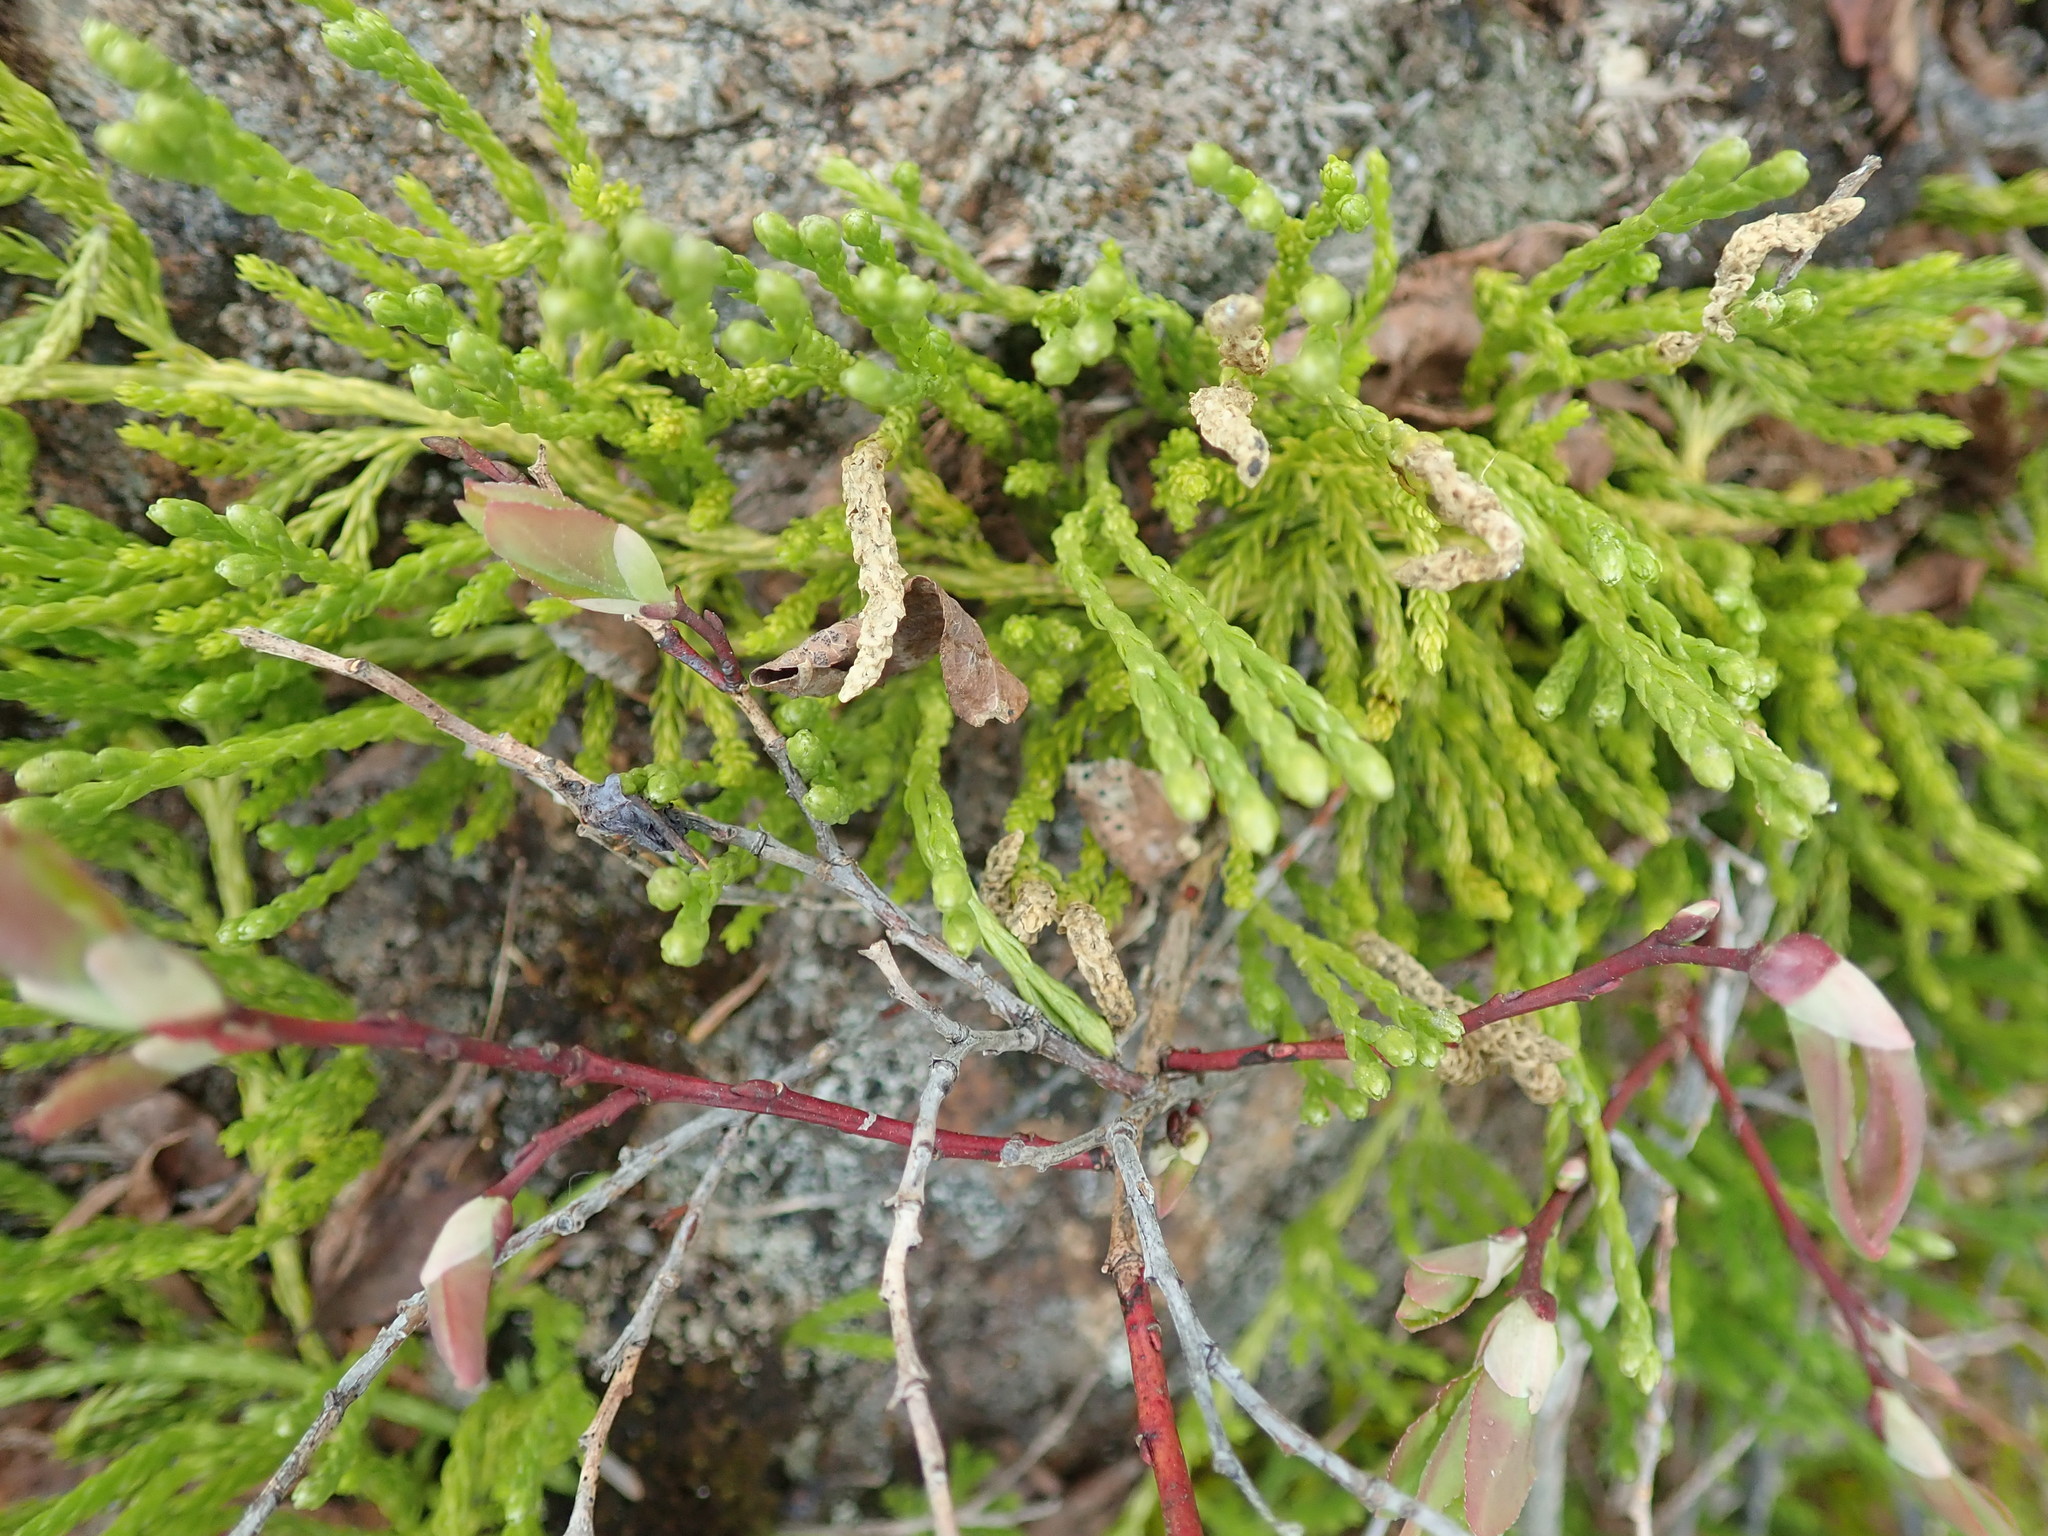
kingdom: Plantae
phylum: Tracheophyta
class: Lycopodiopsida
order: Lycopodiales
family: Lycopodiaceae
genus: Diphasiastrum
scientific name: Diphasiastrum sitchense
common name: Alaska clubmoss
